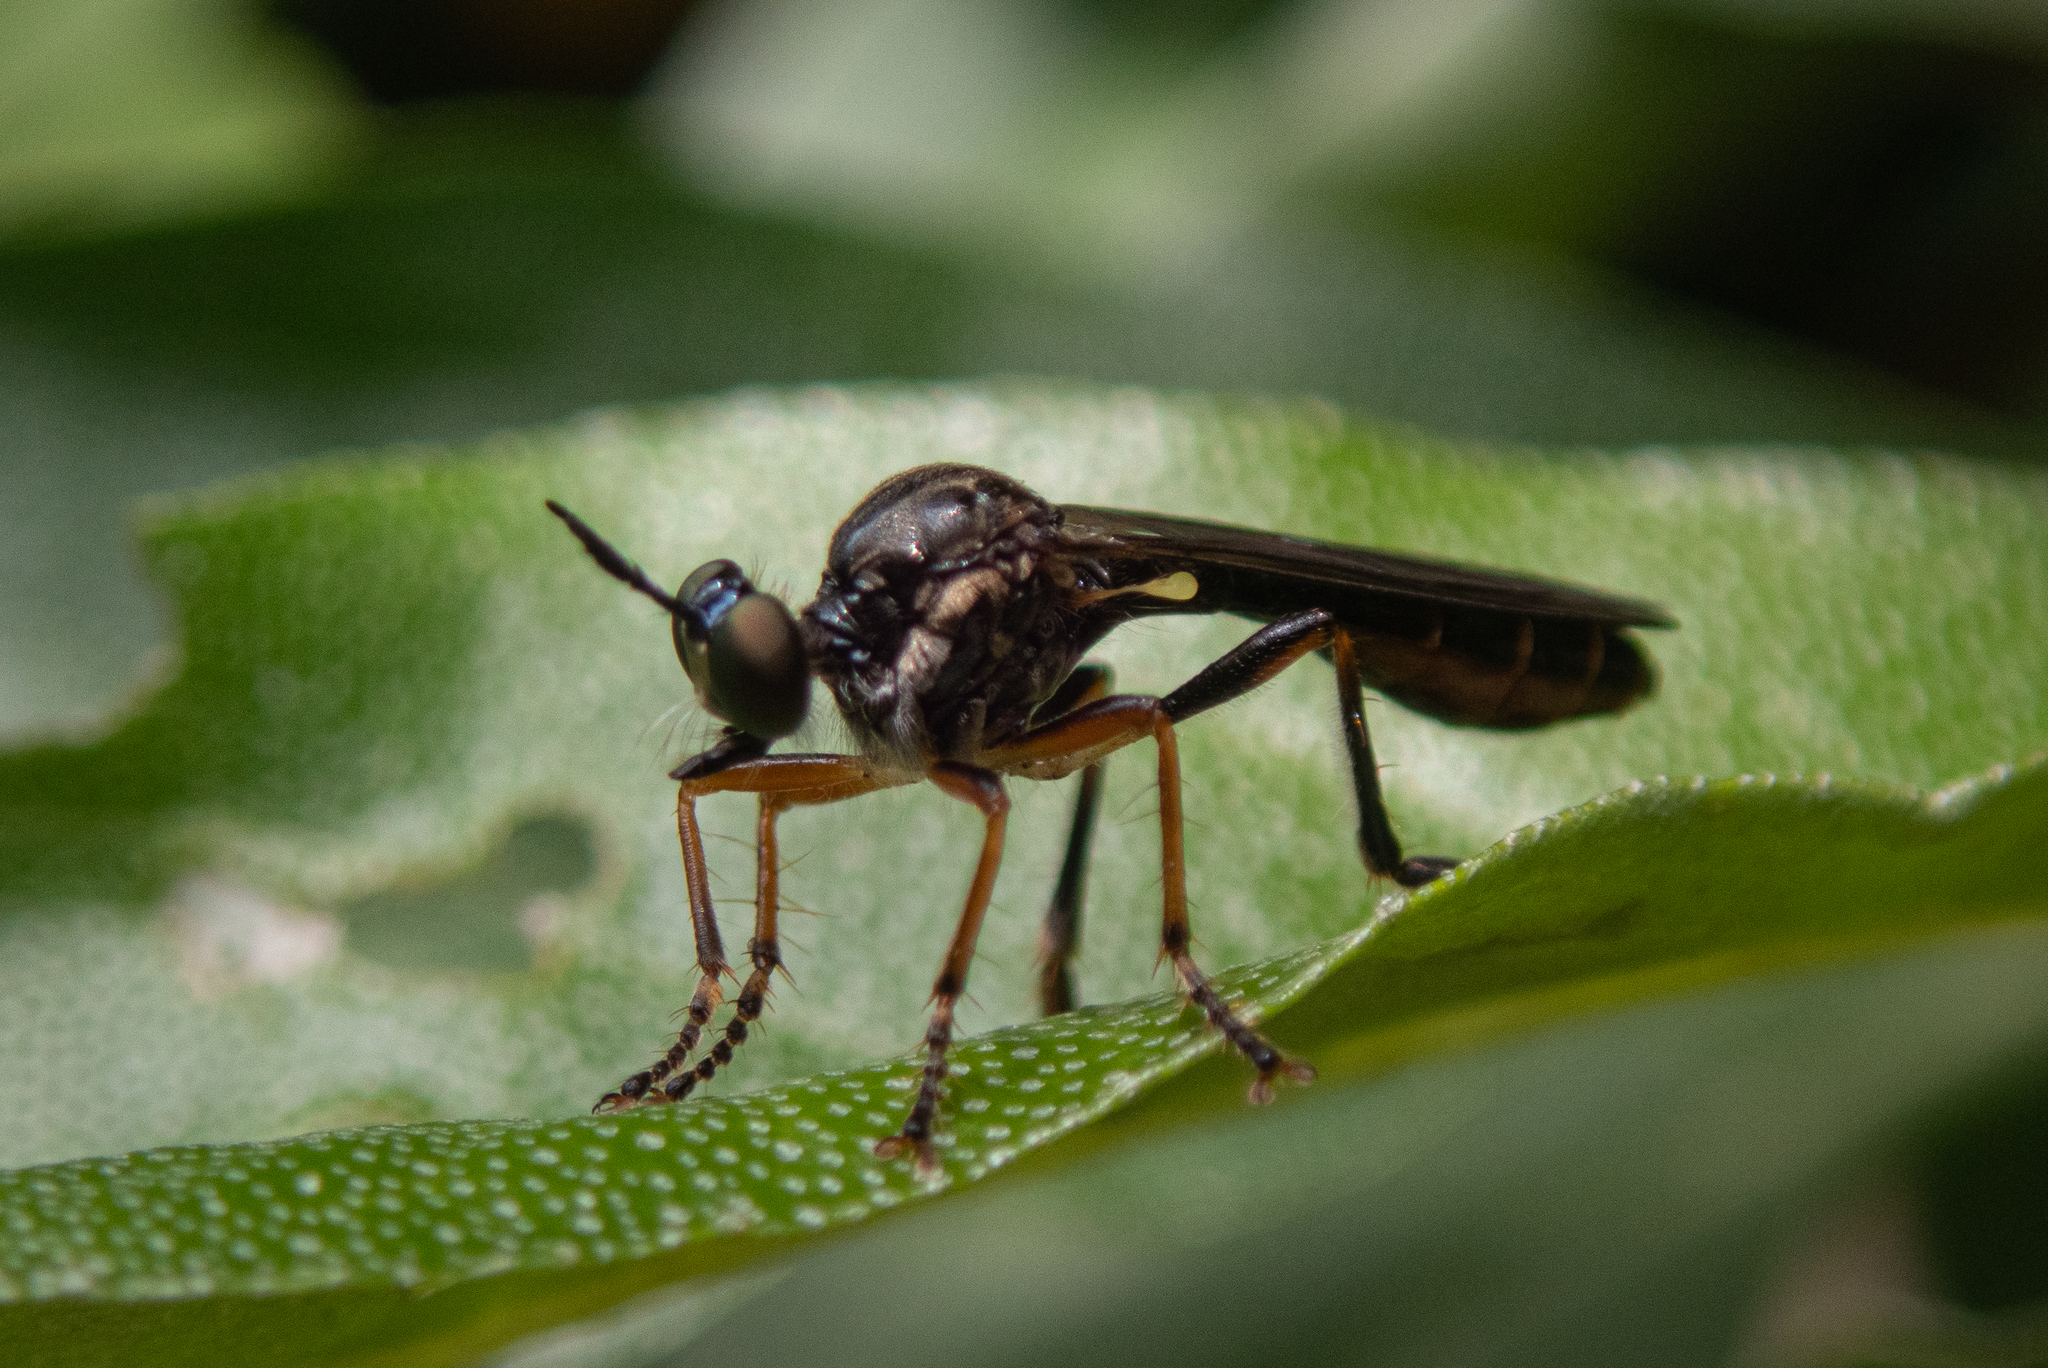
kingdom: Animalia
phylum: Arthropoda
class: Insecta
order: Diptera
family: Asilidae
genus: Dioctria
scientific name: Dioctria hyalipennis
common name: Stripe-legged robberfly
